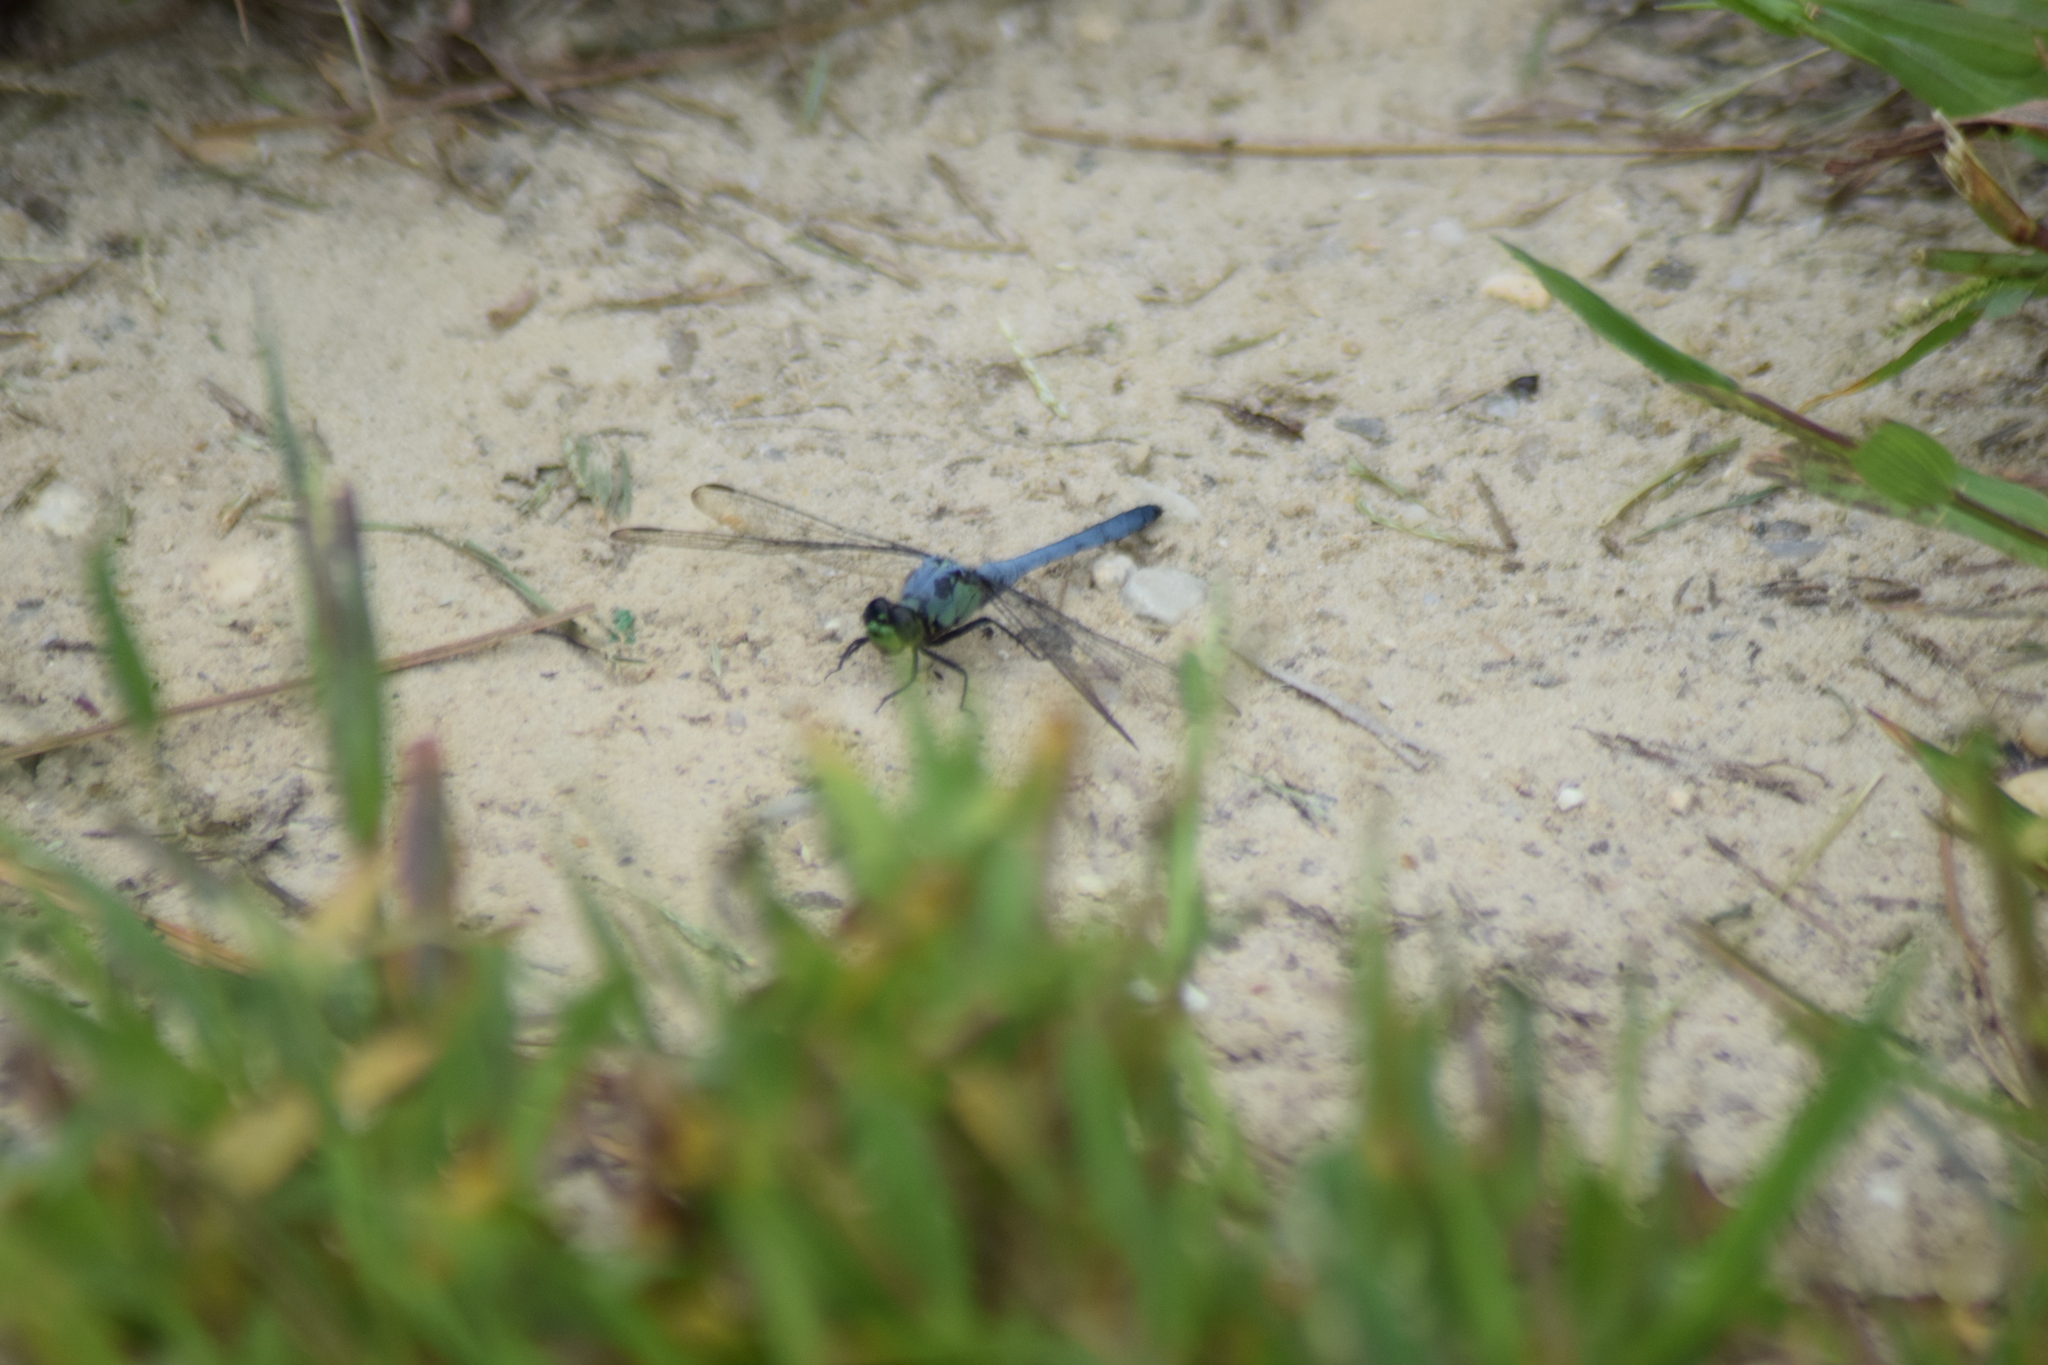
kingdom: Animalia
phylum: Arthropoda
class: Insecta
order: Odonata
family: Libellulidae
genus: Erythemis
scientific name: Erythemis simplicicollis
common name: Eastern pondhawk
